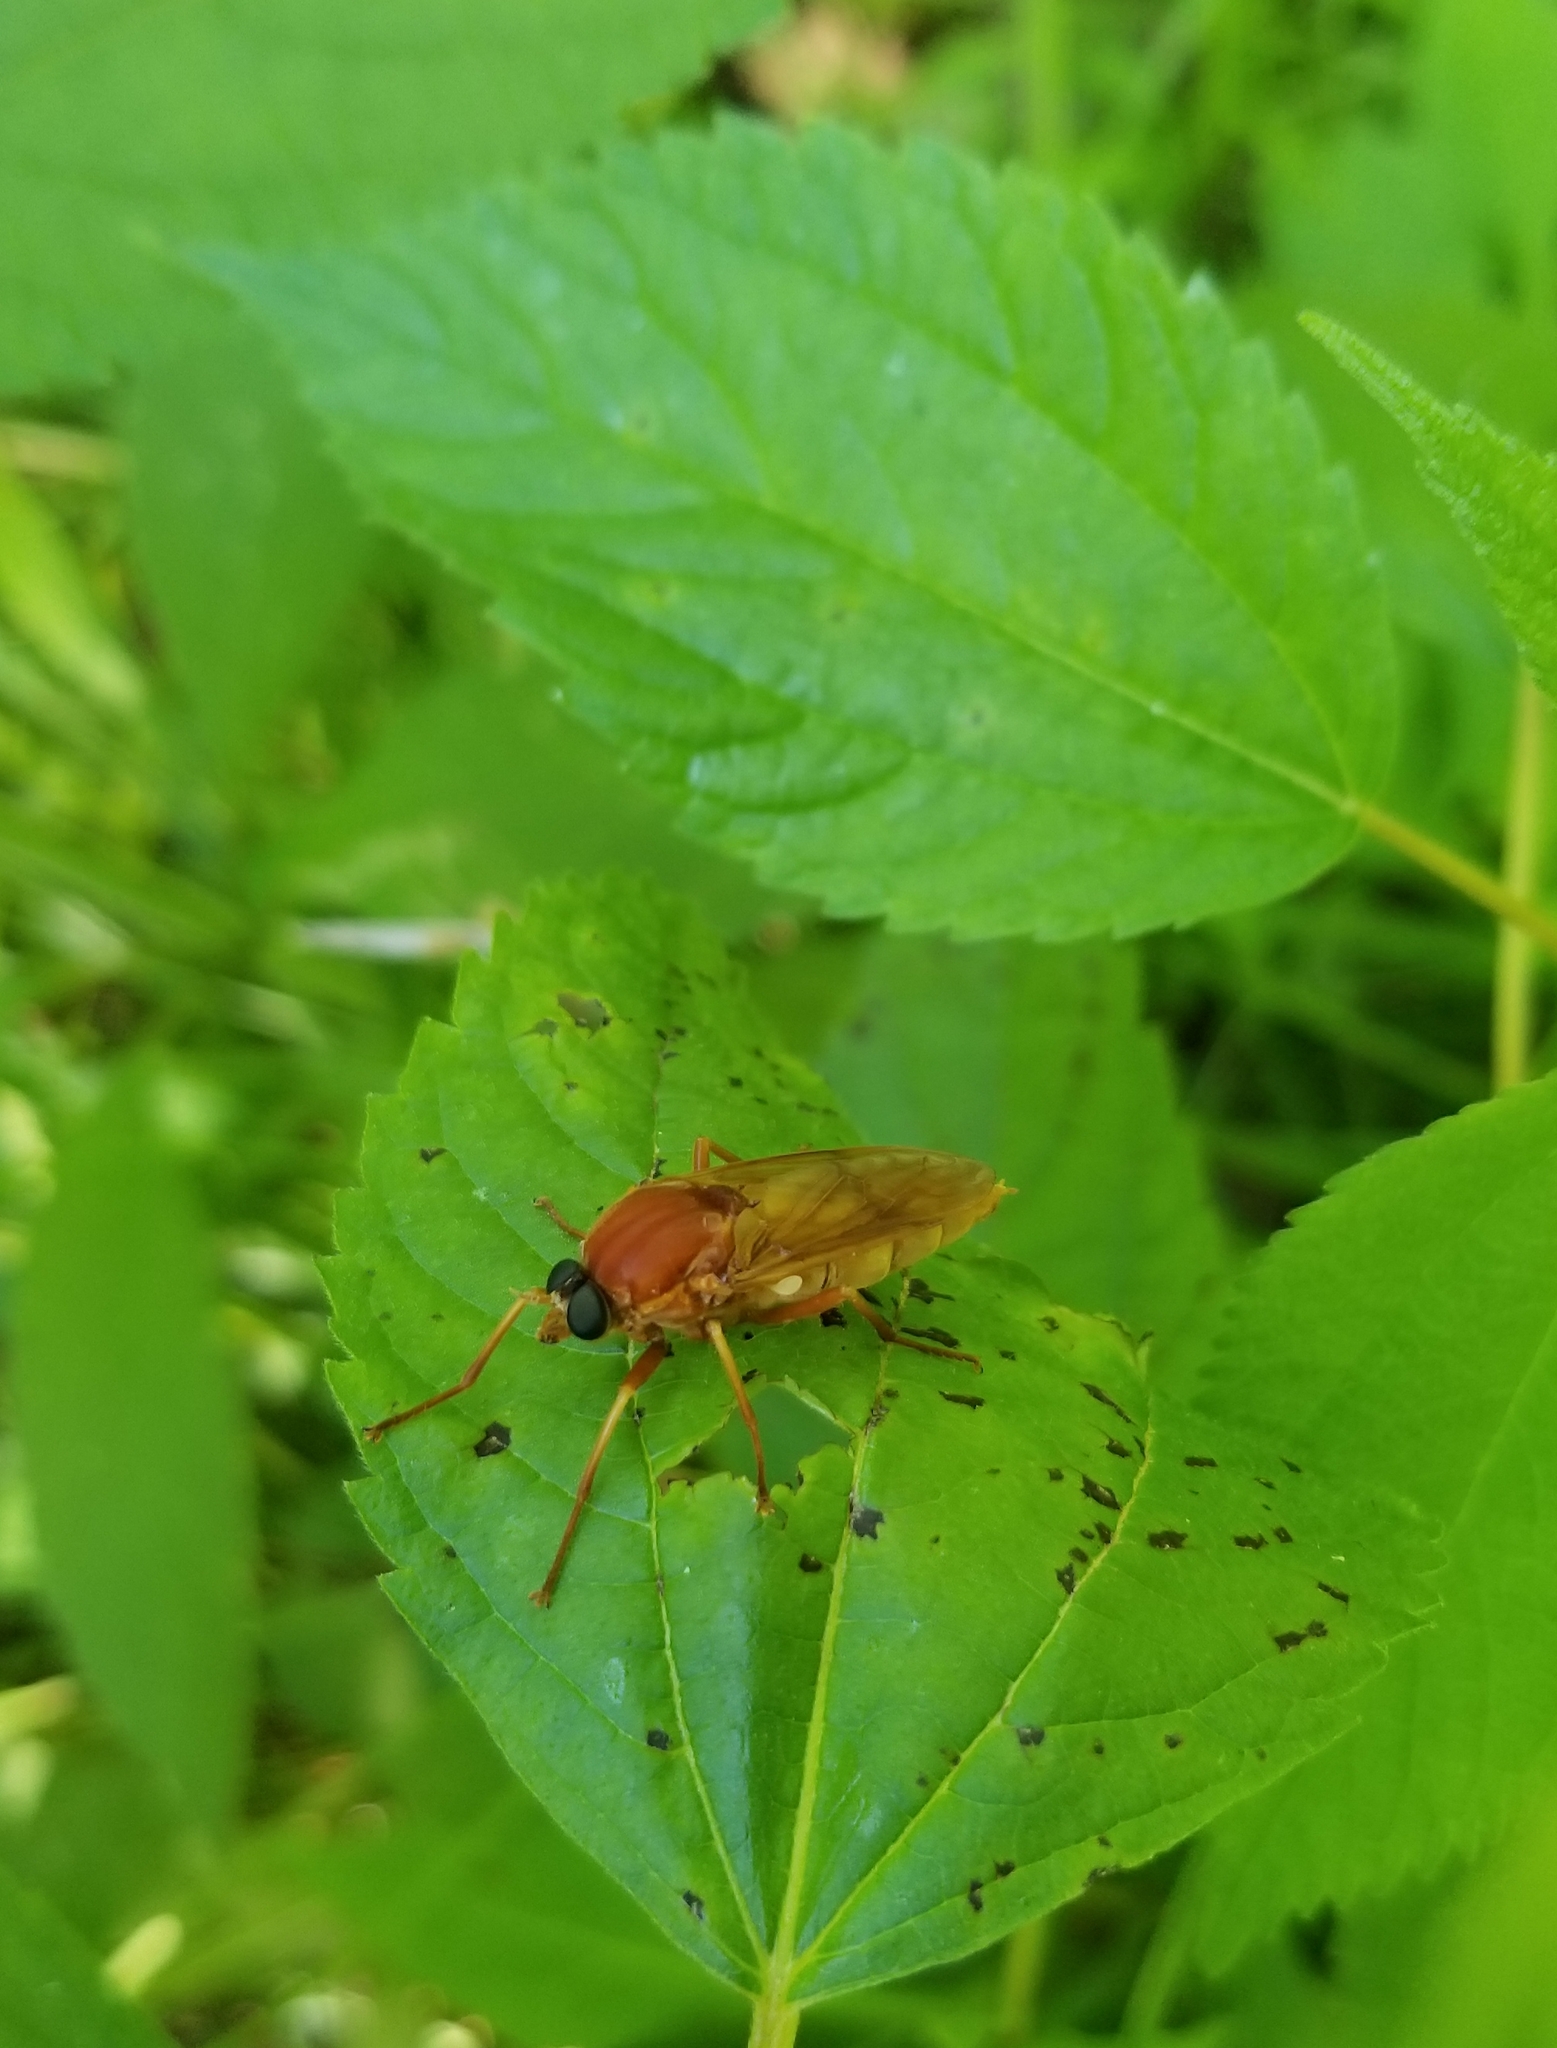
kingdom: Animalia
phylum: Arthropoda
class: Insecta
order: Diptera
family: Xylophagidae
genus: Coenomyia
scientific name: Coenomyia ferruginea
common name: Stink fly
